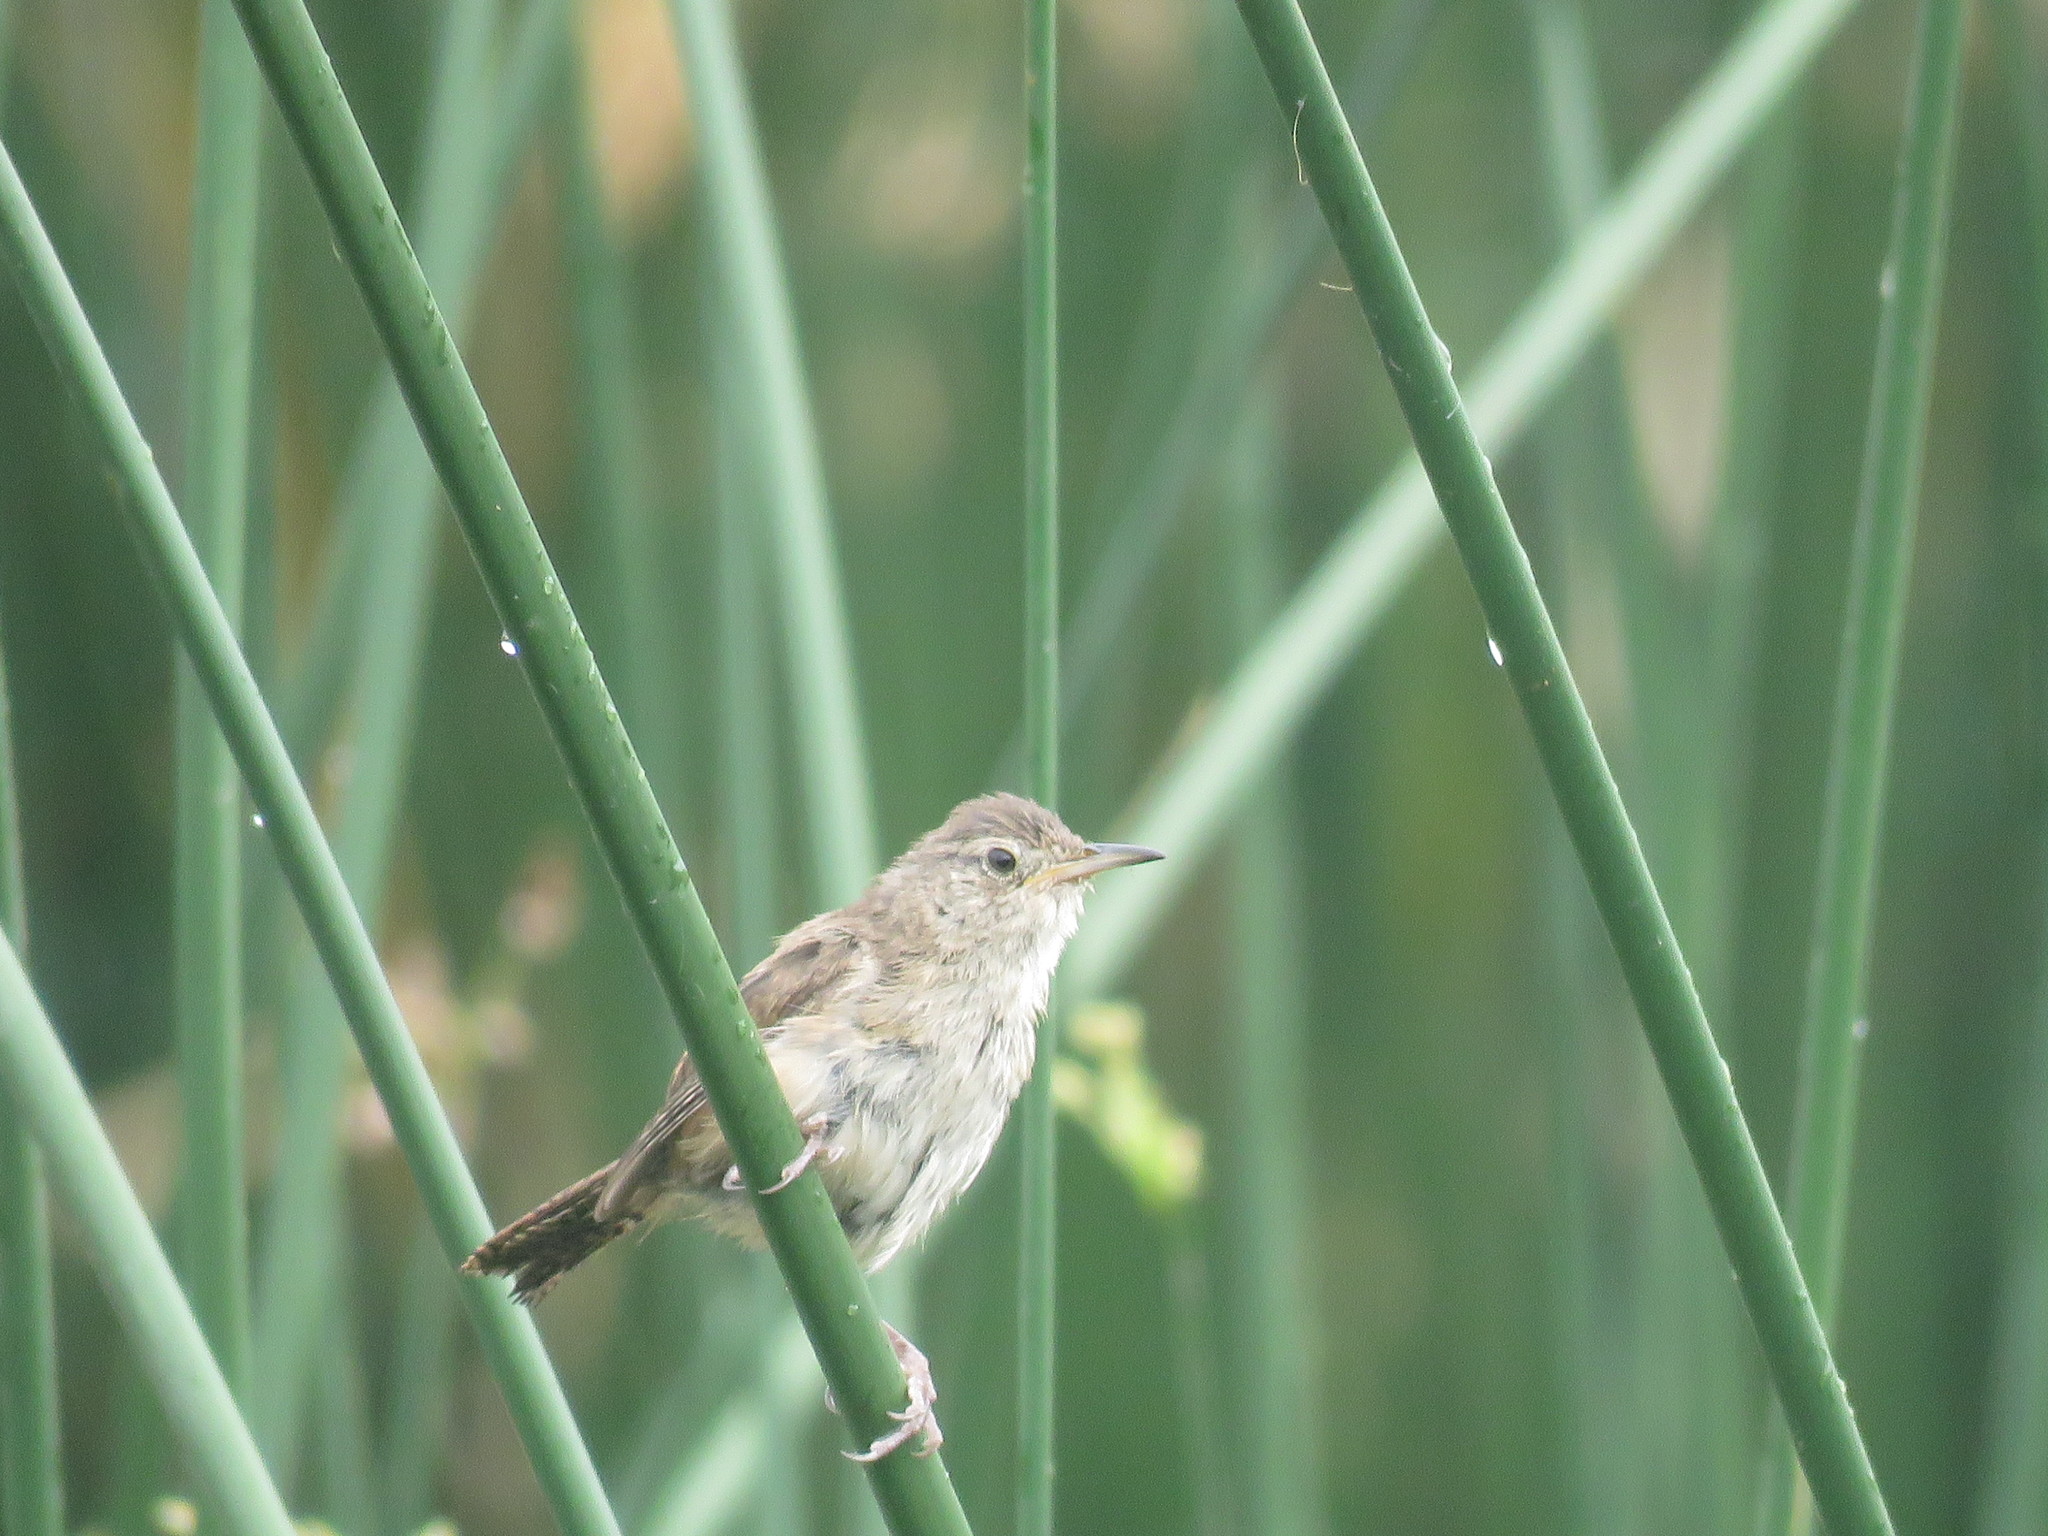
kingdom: Animalia
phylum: Chordata
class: Aves
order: Passeriformes
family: Troglodytidae
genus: Troglodytes
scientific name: Troglodytes aedon
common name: House wren
